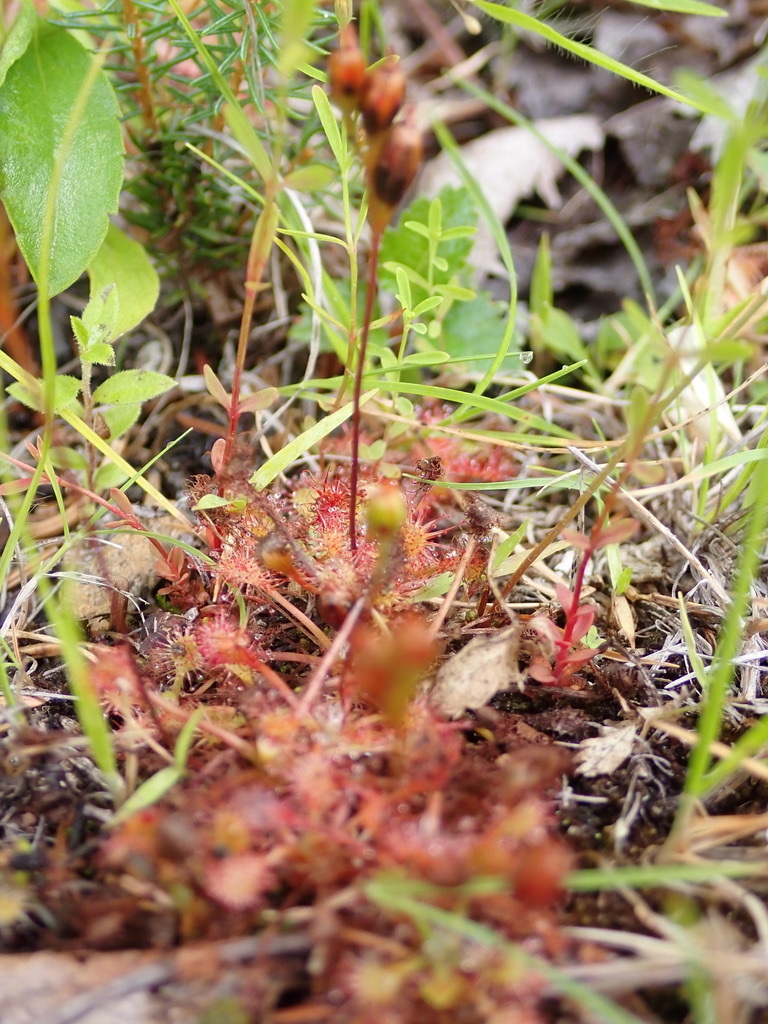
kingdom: Plantae
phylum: Tracheophyta
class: Magnoliopsida
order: Caryophyllales
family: Droseraceae
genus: Drosera
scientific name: Drosera intermedia
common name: Oblong-leaved sundew
